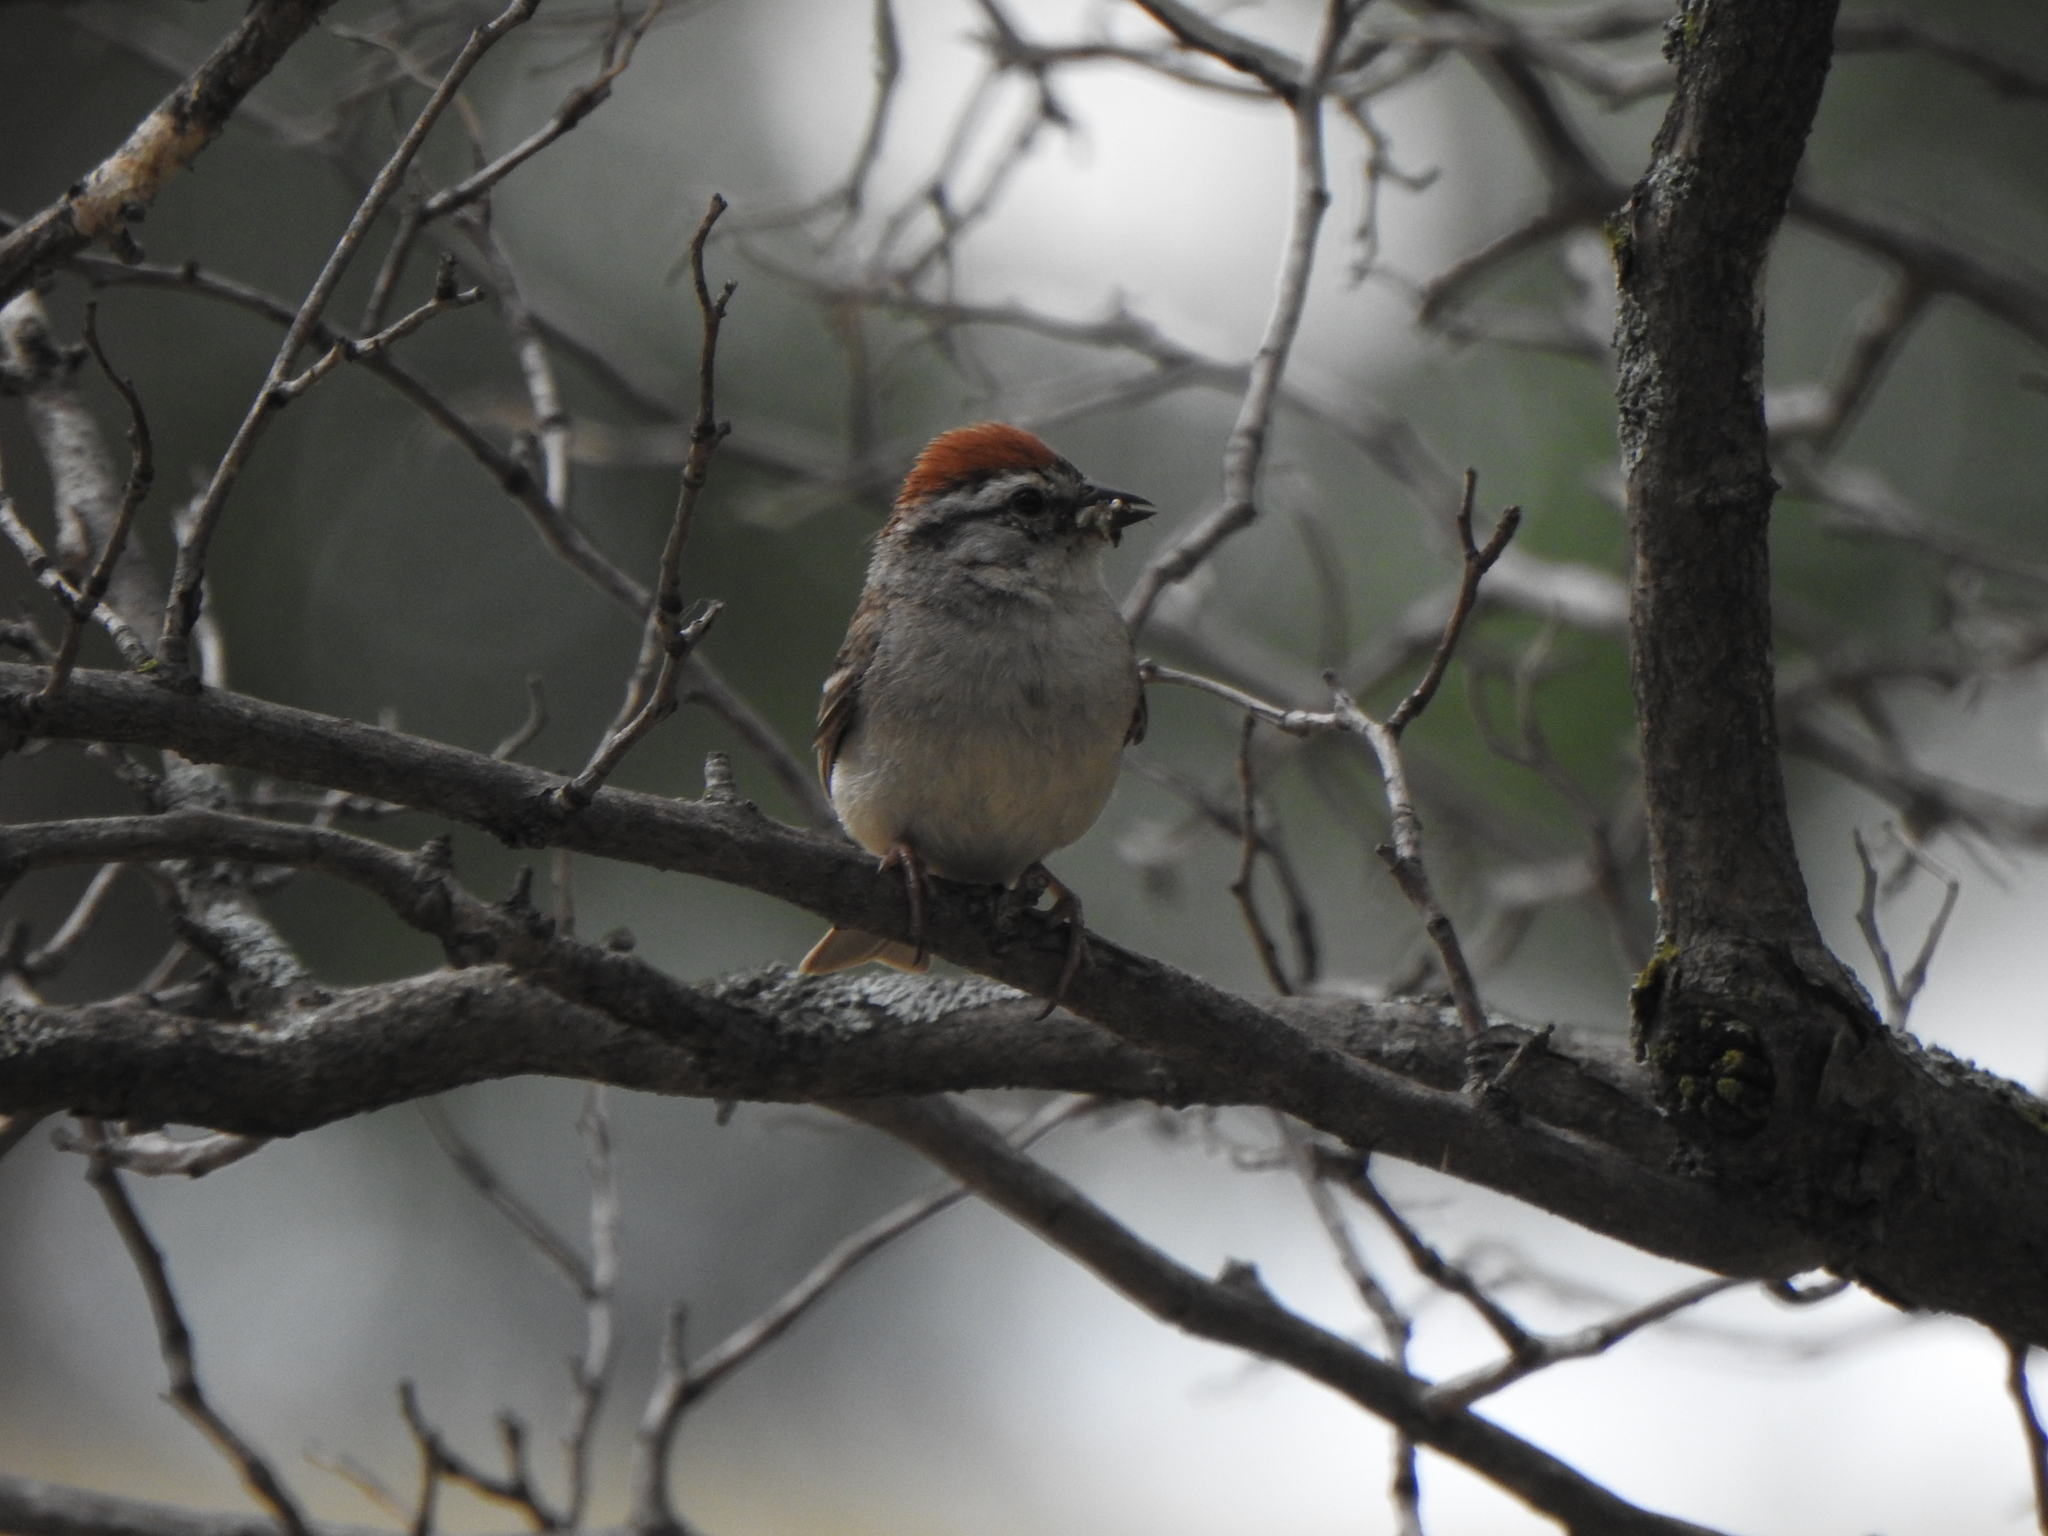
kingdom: Animalia
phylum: Chordata
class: Aves
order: Passeriformes
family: Passerellidae
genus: Spizella
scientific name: Spizella passerina
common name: Chipping sparrow
